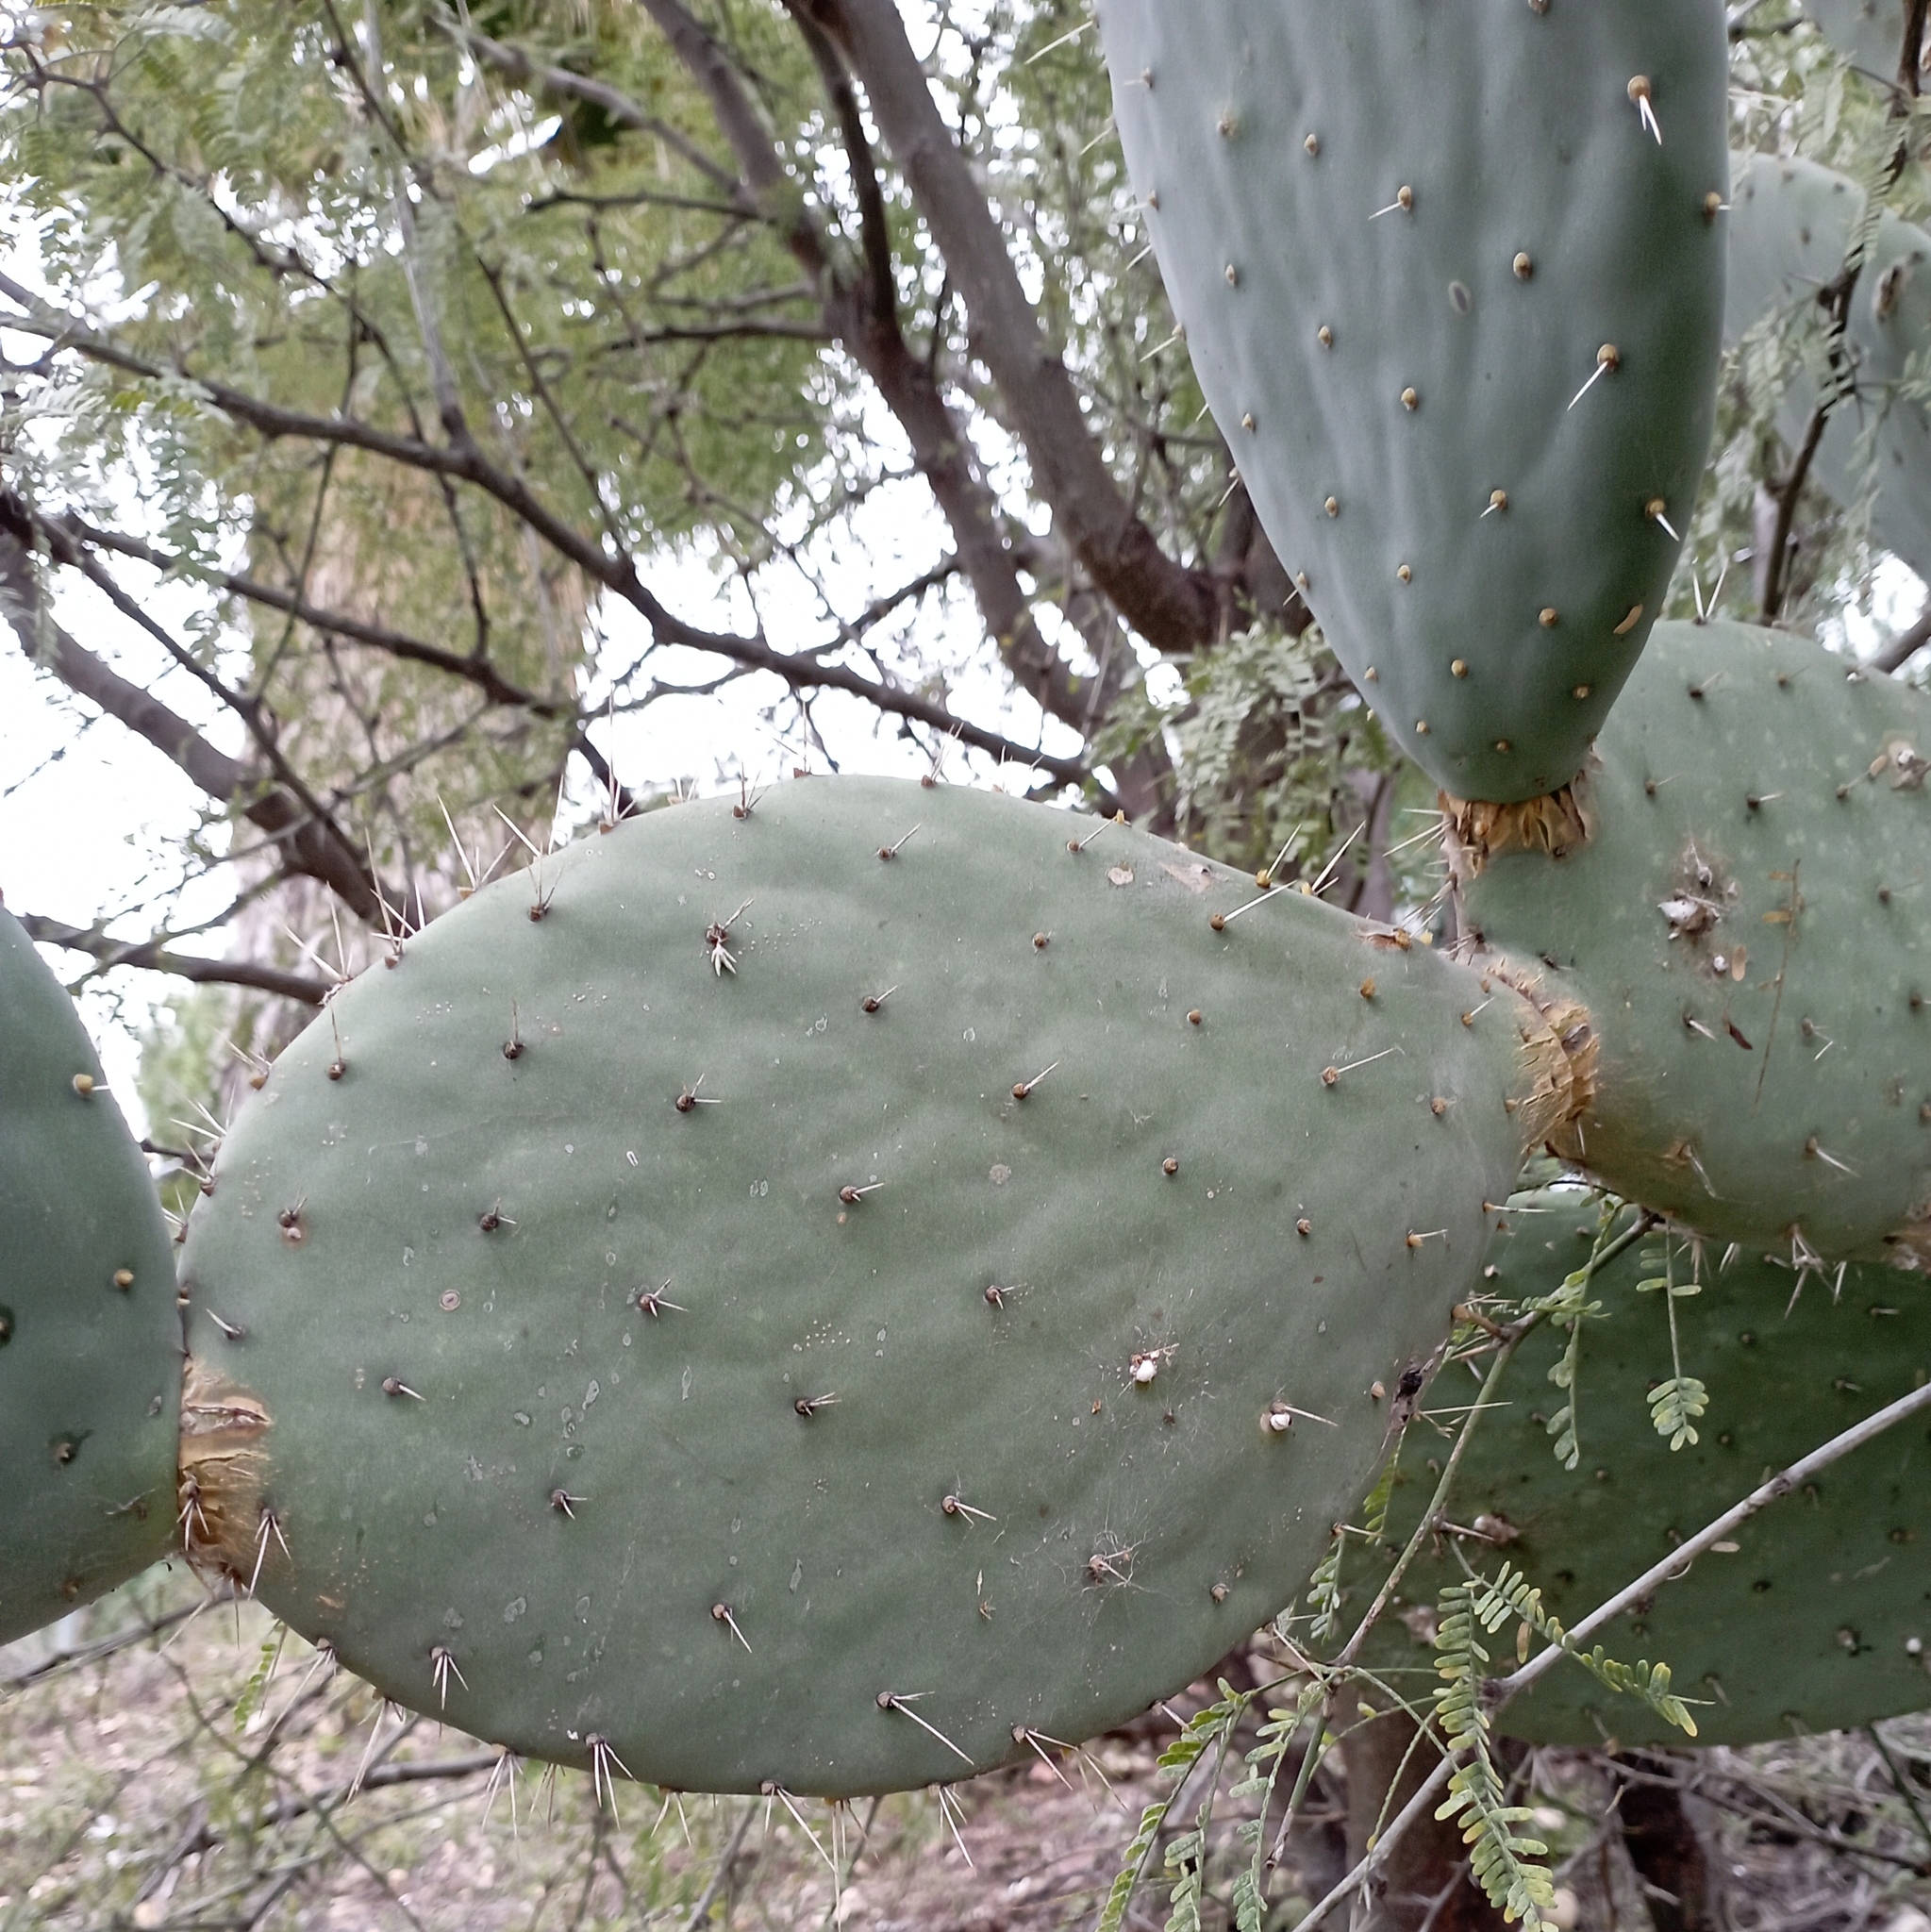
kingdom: Plantae
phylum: Tracheophyta
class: Magnoliopsida
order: Caryophyllales
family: Cactaceae
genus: Opuntia
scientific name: Opuntia ficus-indica
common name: Barbary fig
